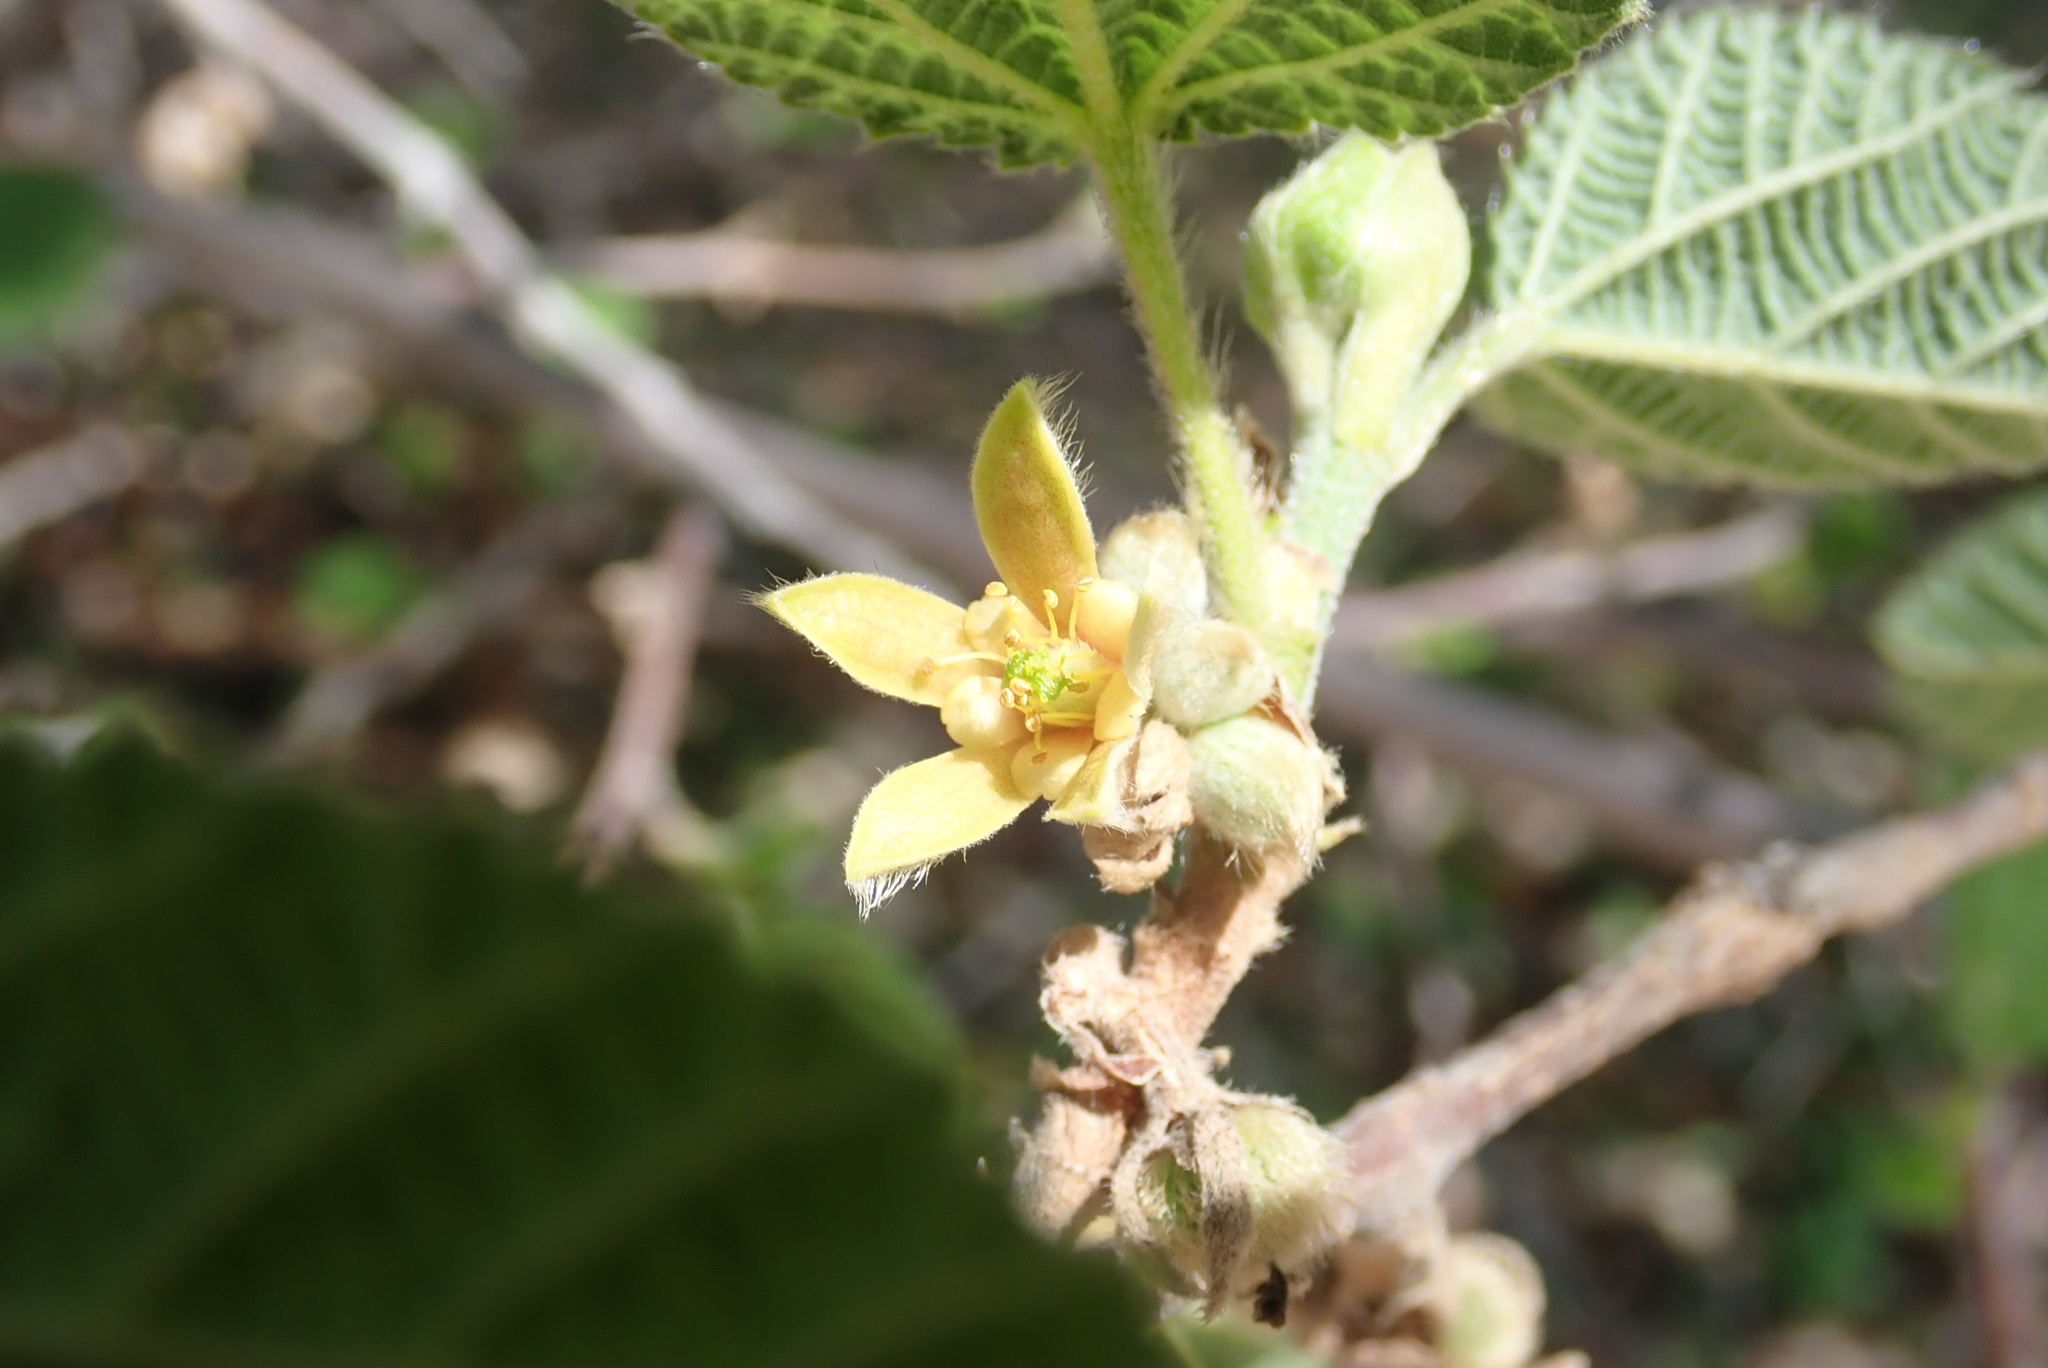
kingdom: Plantae
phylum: Tracheophyta
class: Magnoliopsida
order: Malvales
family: Malvaceae
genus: Grewia
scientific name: Grewia villosa
